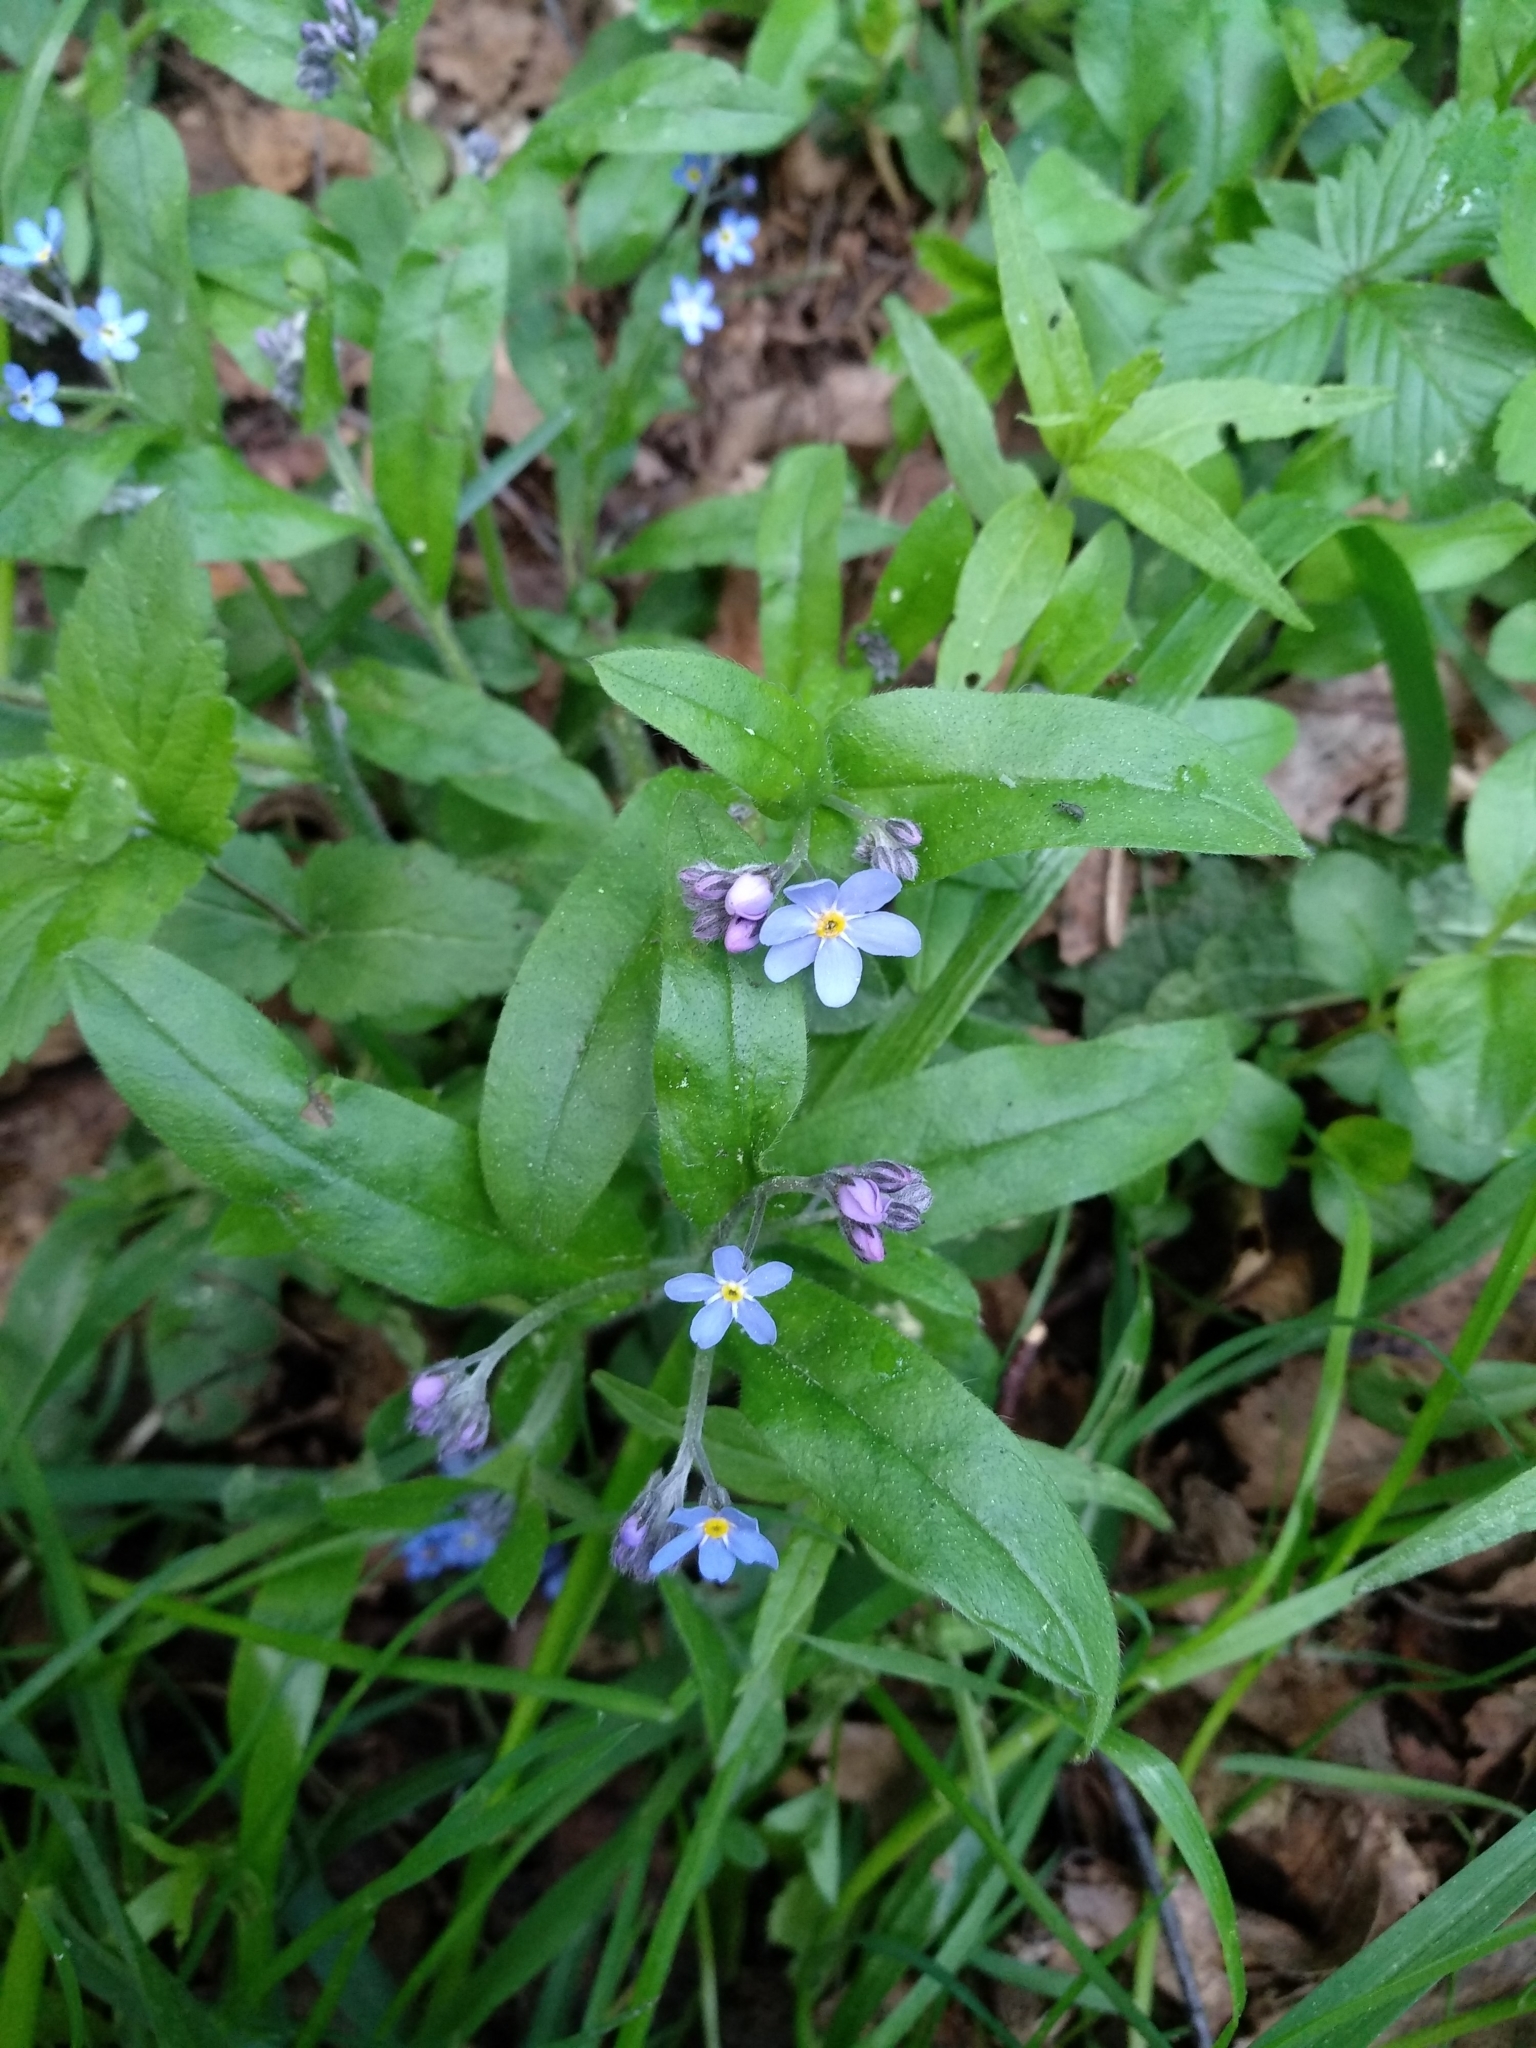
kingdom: Plantae
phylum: Tracheophyta
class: Magnoliopsida
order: Boraginales
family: Boraginaceae
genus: Myosotis
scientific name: Myosotis sylvatica
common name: Wood forget-me-not
